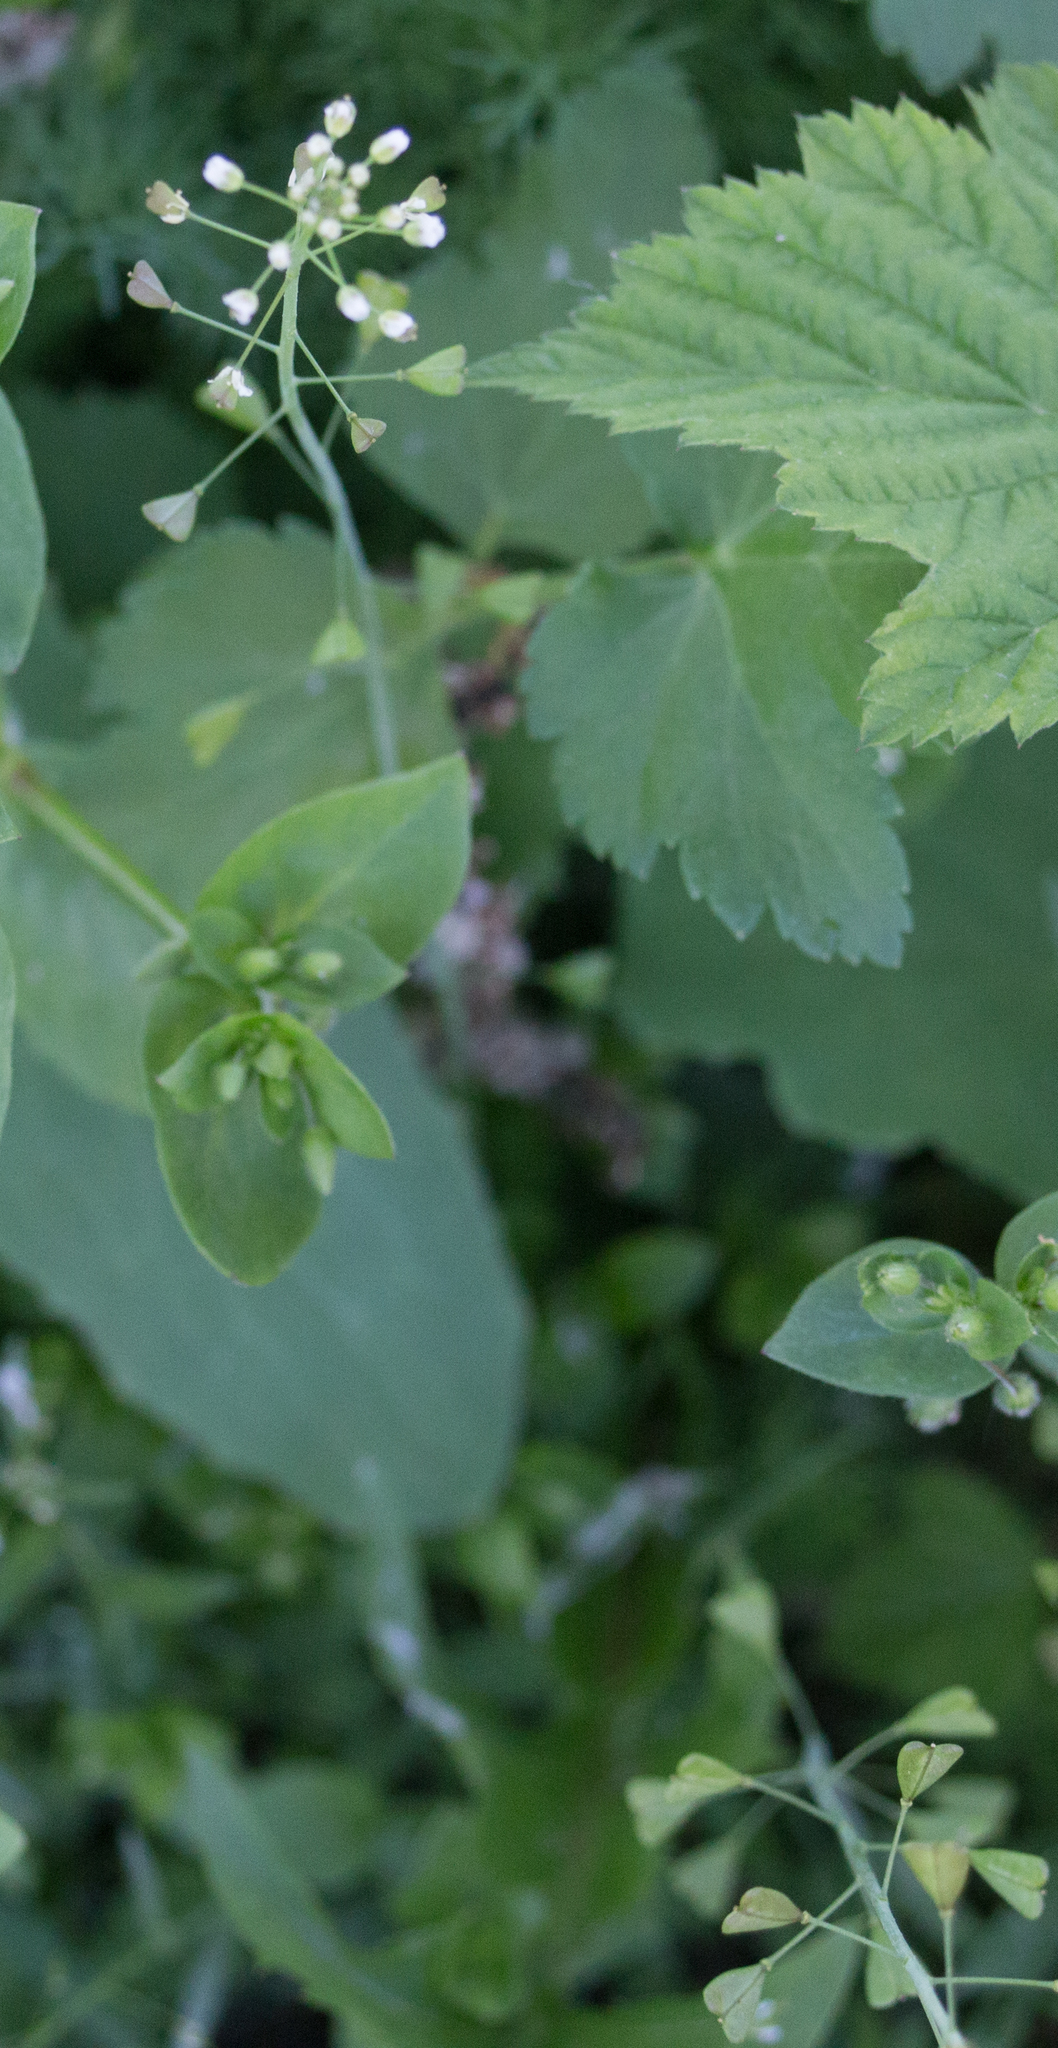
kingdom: Plantae
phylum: Tracheophyta
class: Magnoliopsida
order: Brassicales
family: Brassicaceae
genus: Capsella
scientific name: Capsella bursa-pastoris
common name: Shepherd's purse
